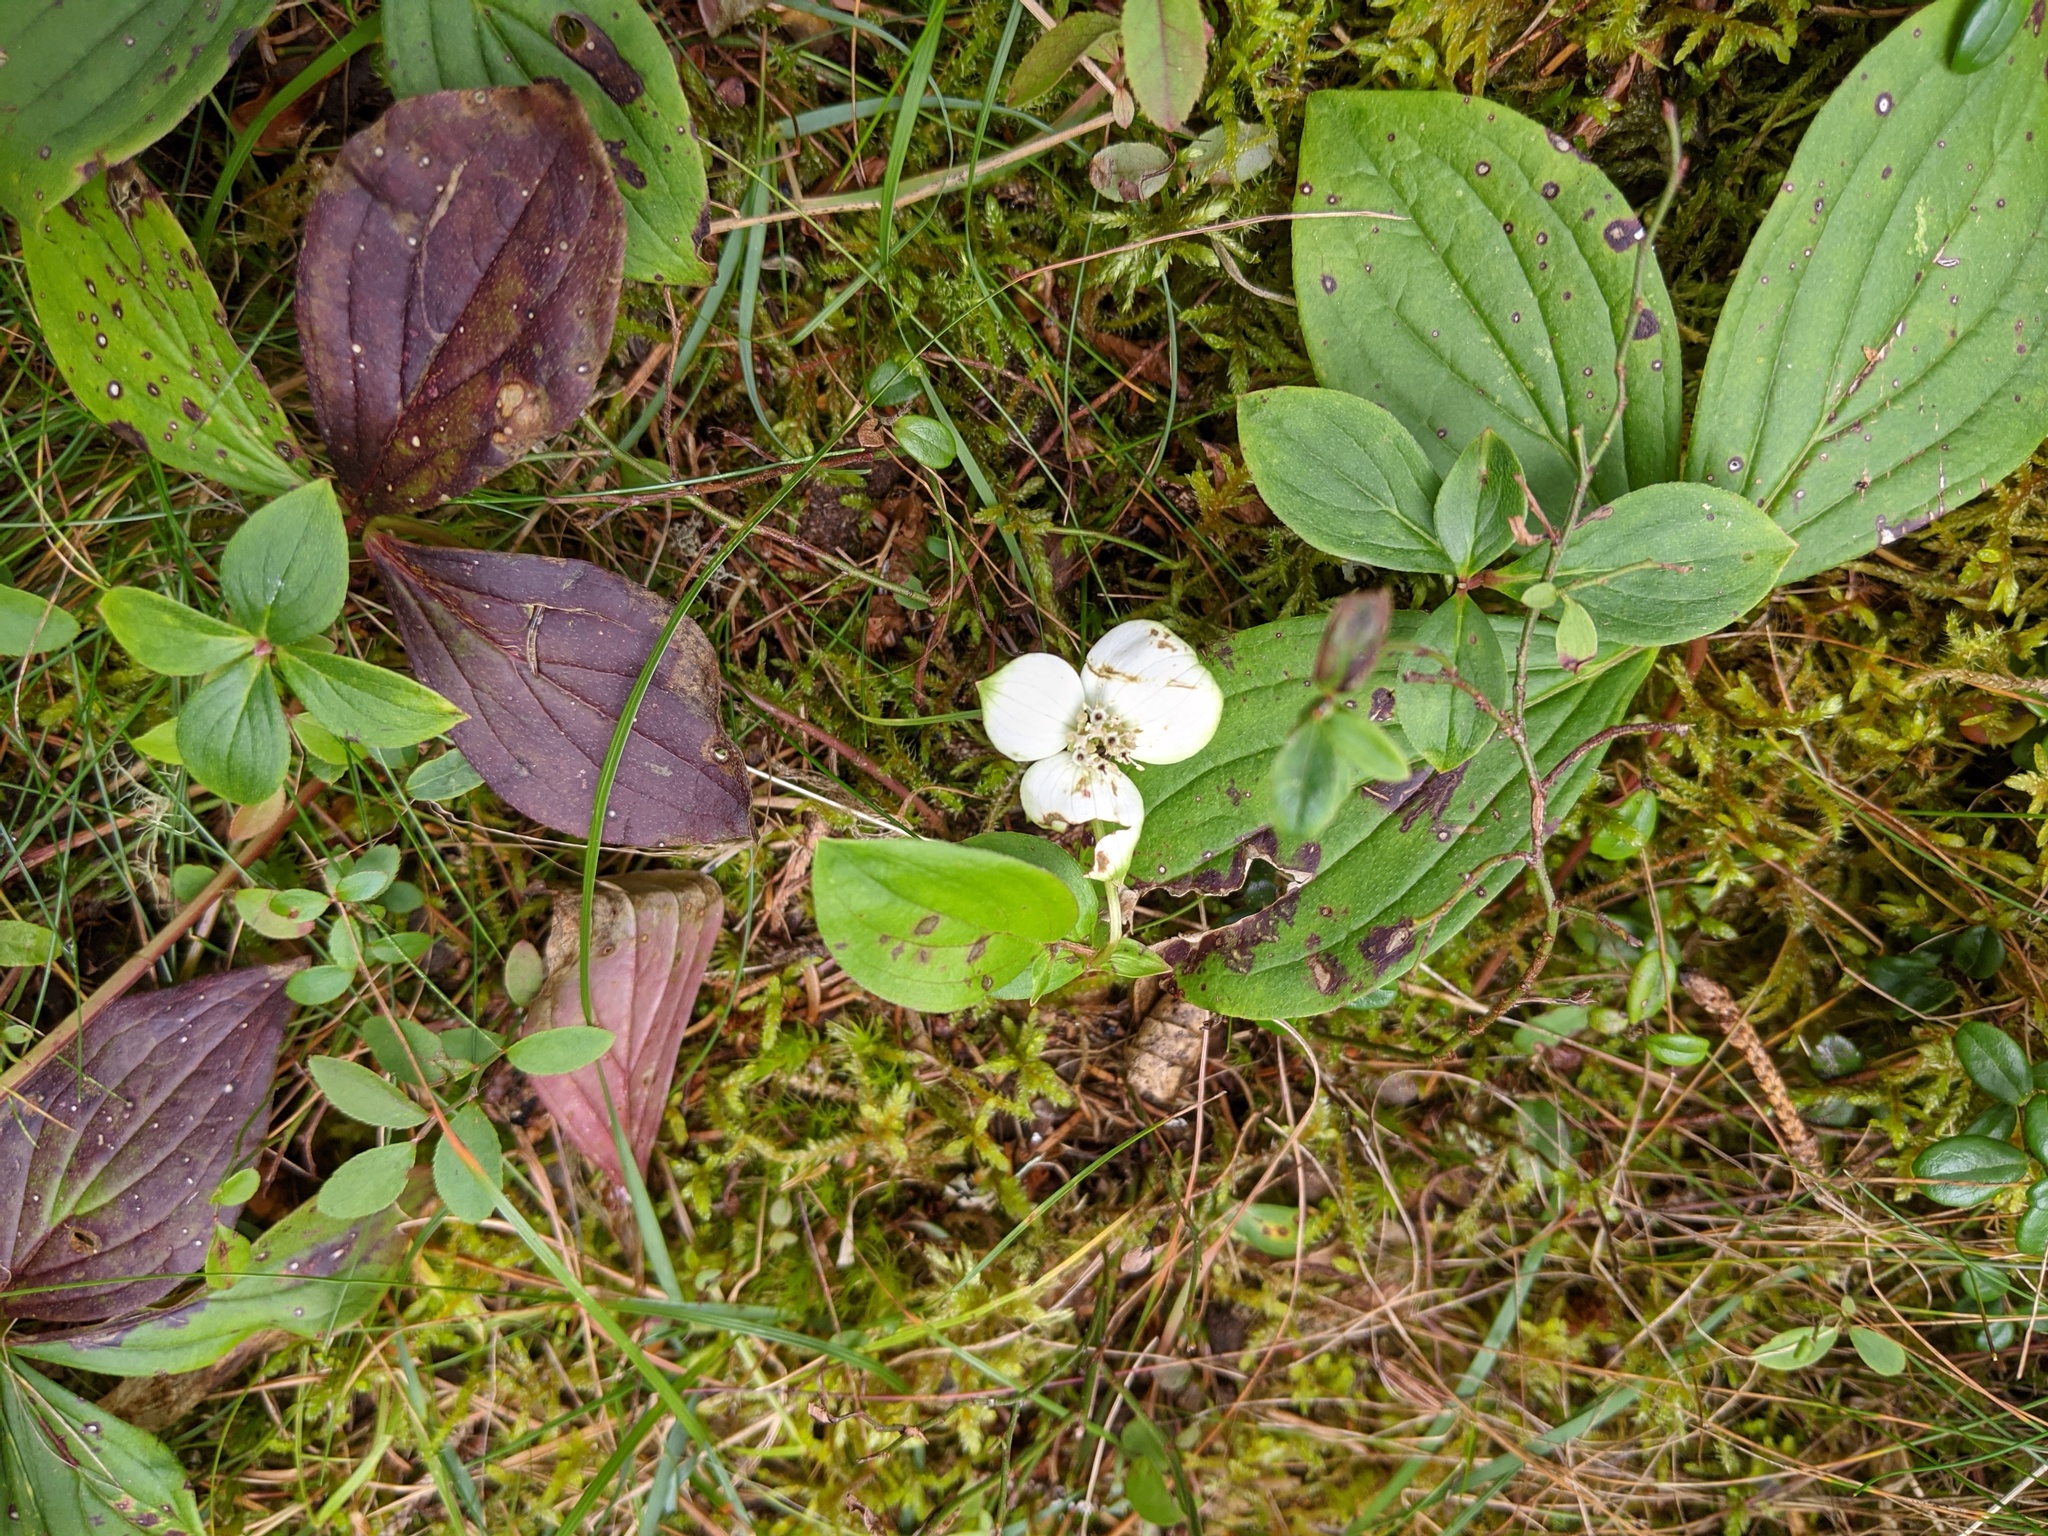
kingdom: Plantae
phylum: Tracheophyta
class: Magnoliopsida
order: Cornales
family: Cornaceae
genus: Cornus
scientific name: Cornus canadensis
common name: Creeping dogwood
